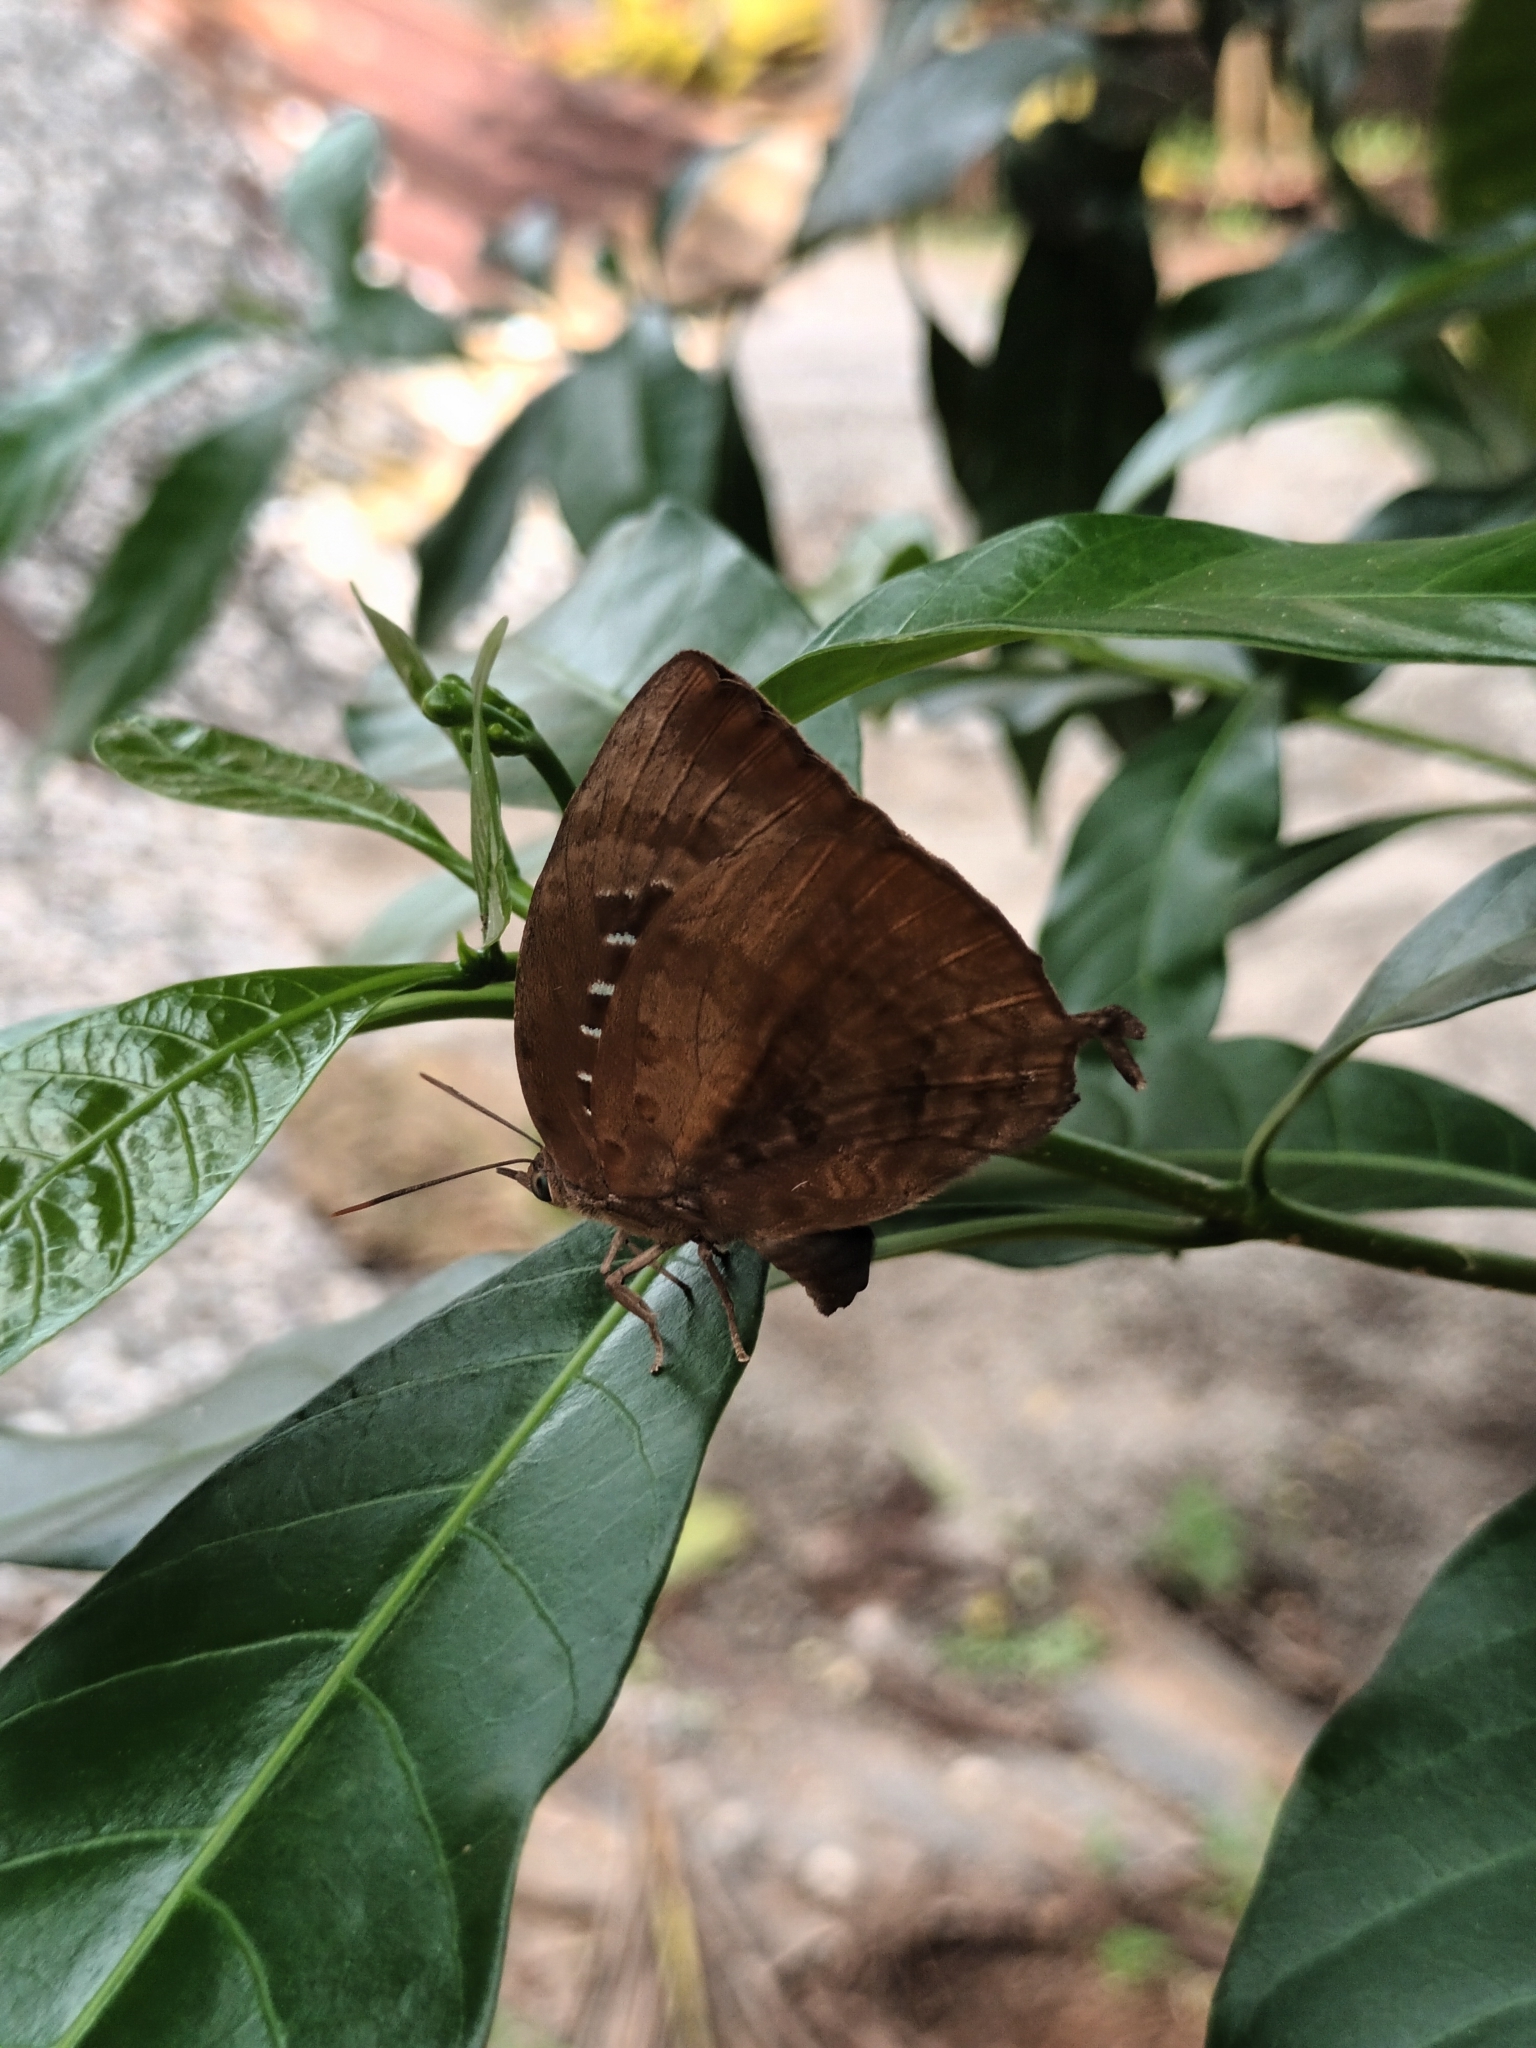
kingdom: Animalia
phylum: Arthropoda
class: Insecta
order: Lepidoptera
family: Lycaenidae
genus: Arhopala
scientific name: Arhopala centaurus
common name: Dull oak-blue
